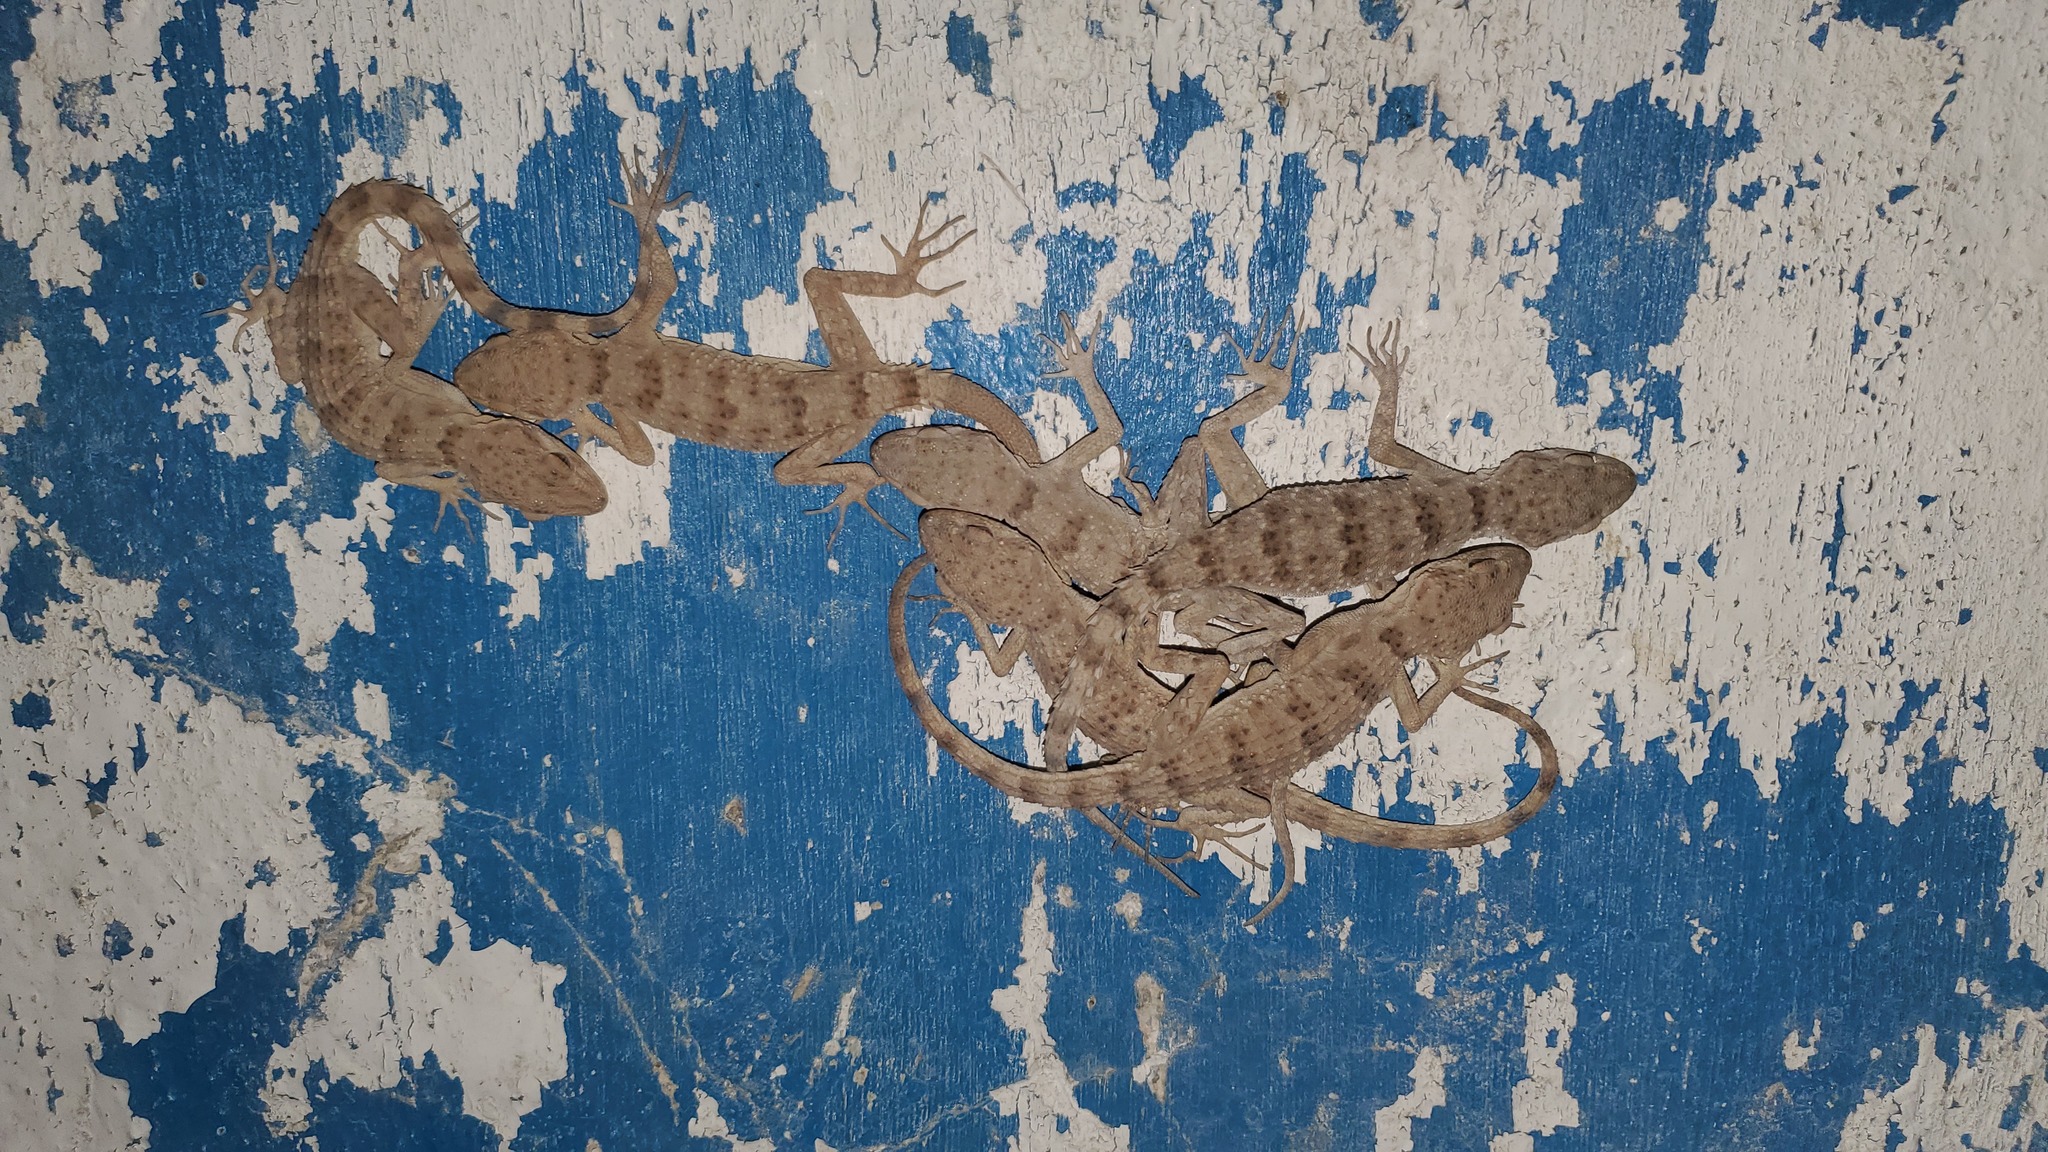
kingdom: Animalia
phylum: Chordata
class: Squamata
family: Gekkonidae
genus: Tenuidactylus
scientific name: Tenuidactylus turcmenicus
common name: Turkmenian thin-toed gecko
